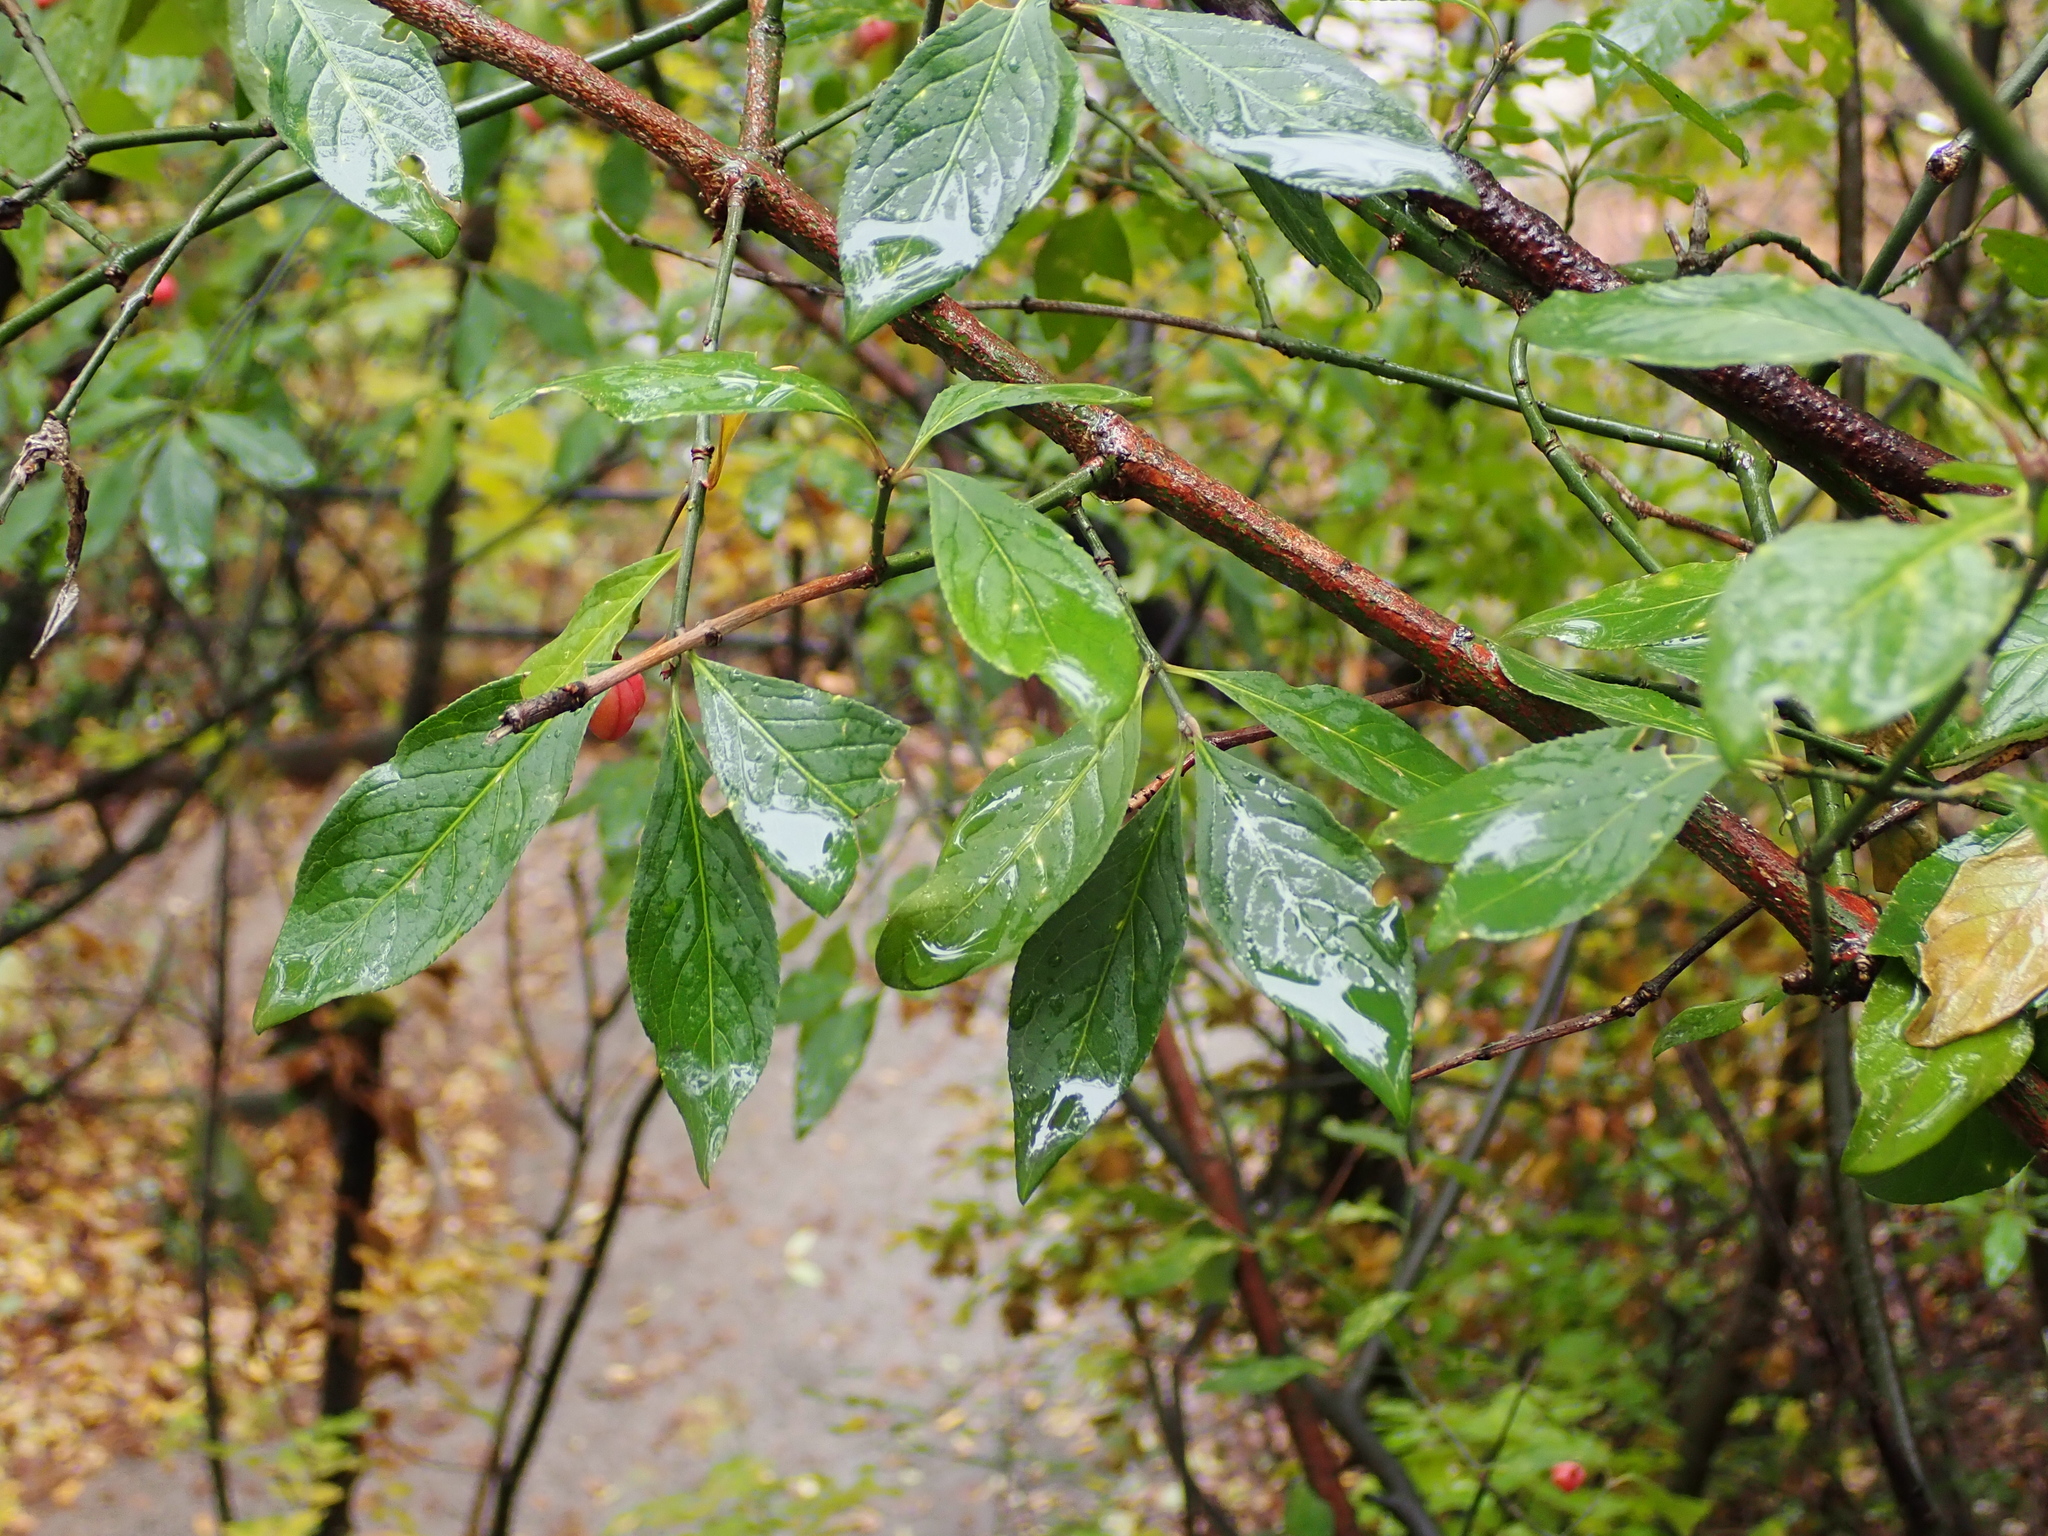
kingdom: Plantae
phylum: Tracheophyta
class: Magnoliopsida
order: Celastrales
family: Celastraceae
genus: Euonymus
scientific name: Euonymus europaeus
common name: Spindle
